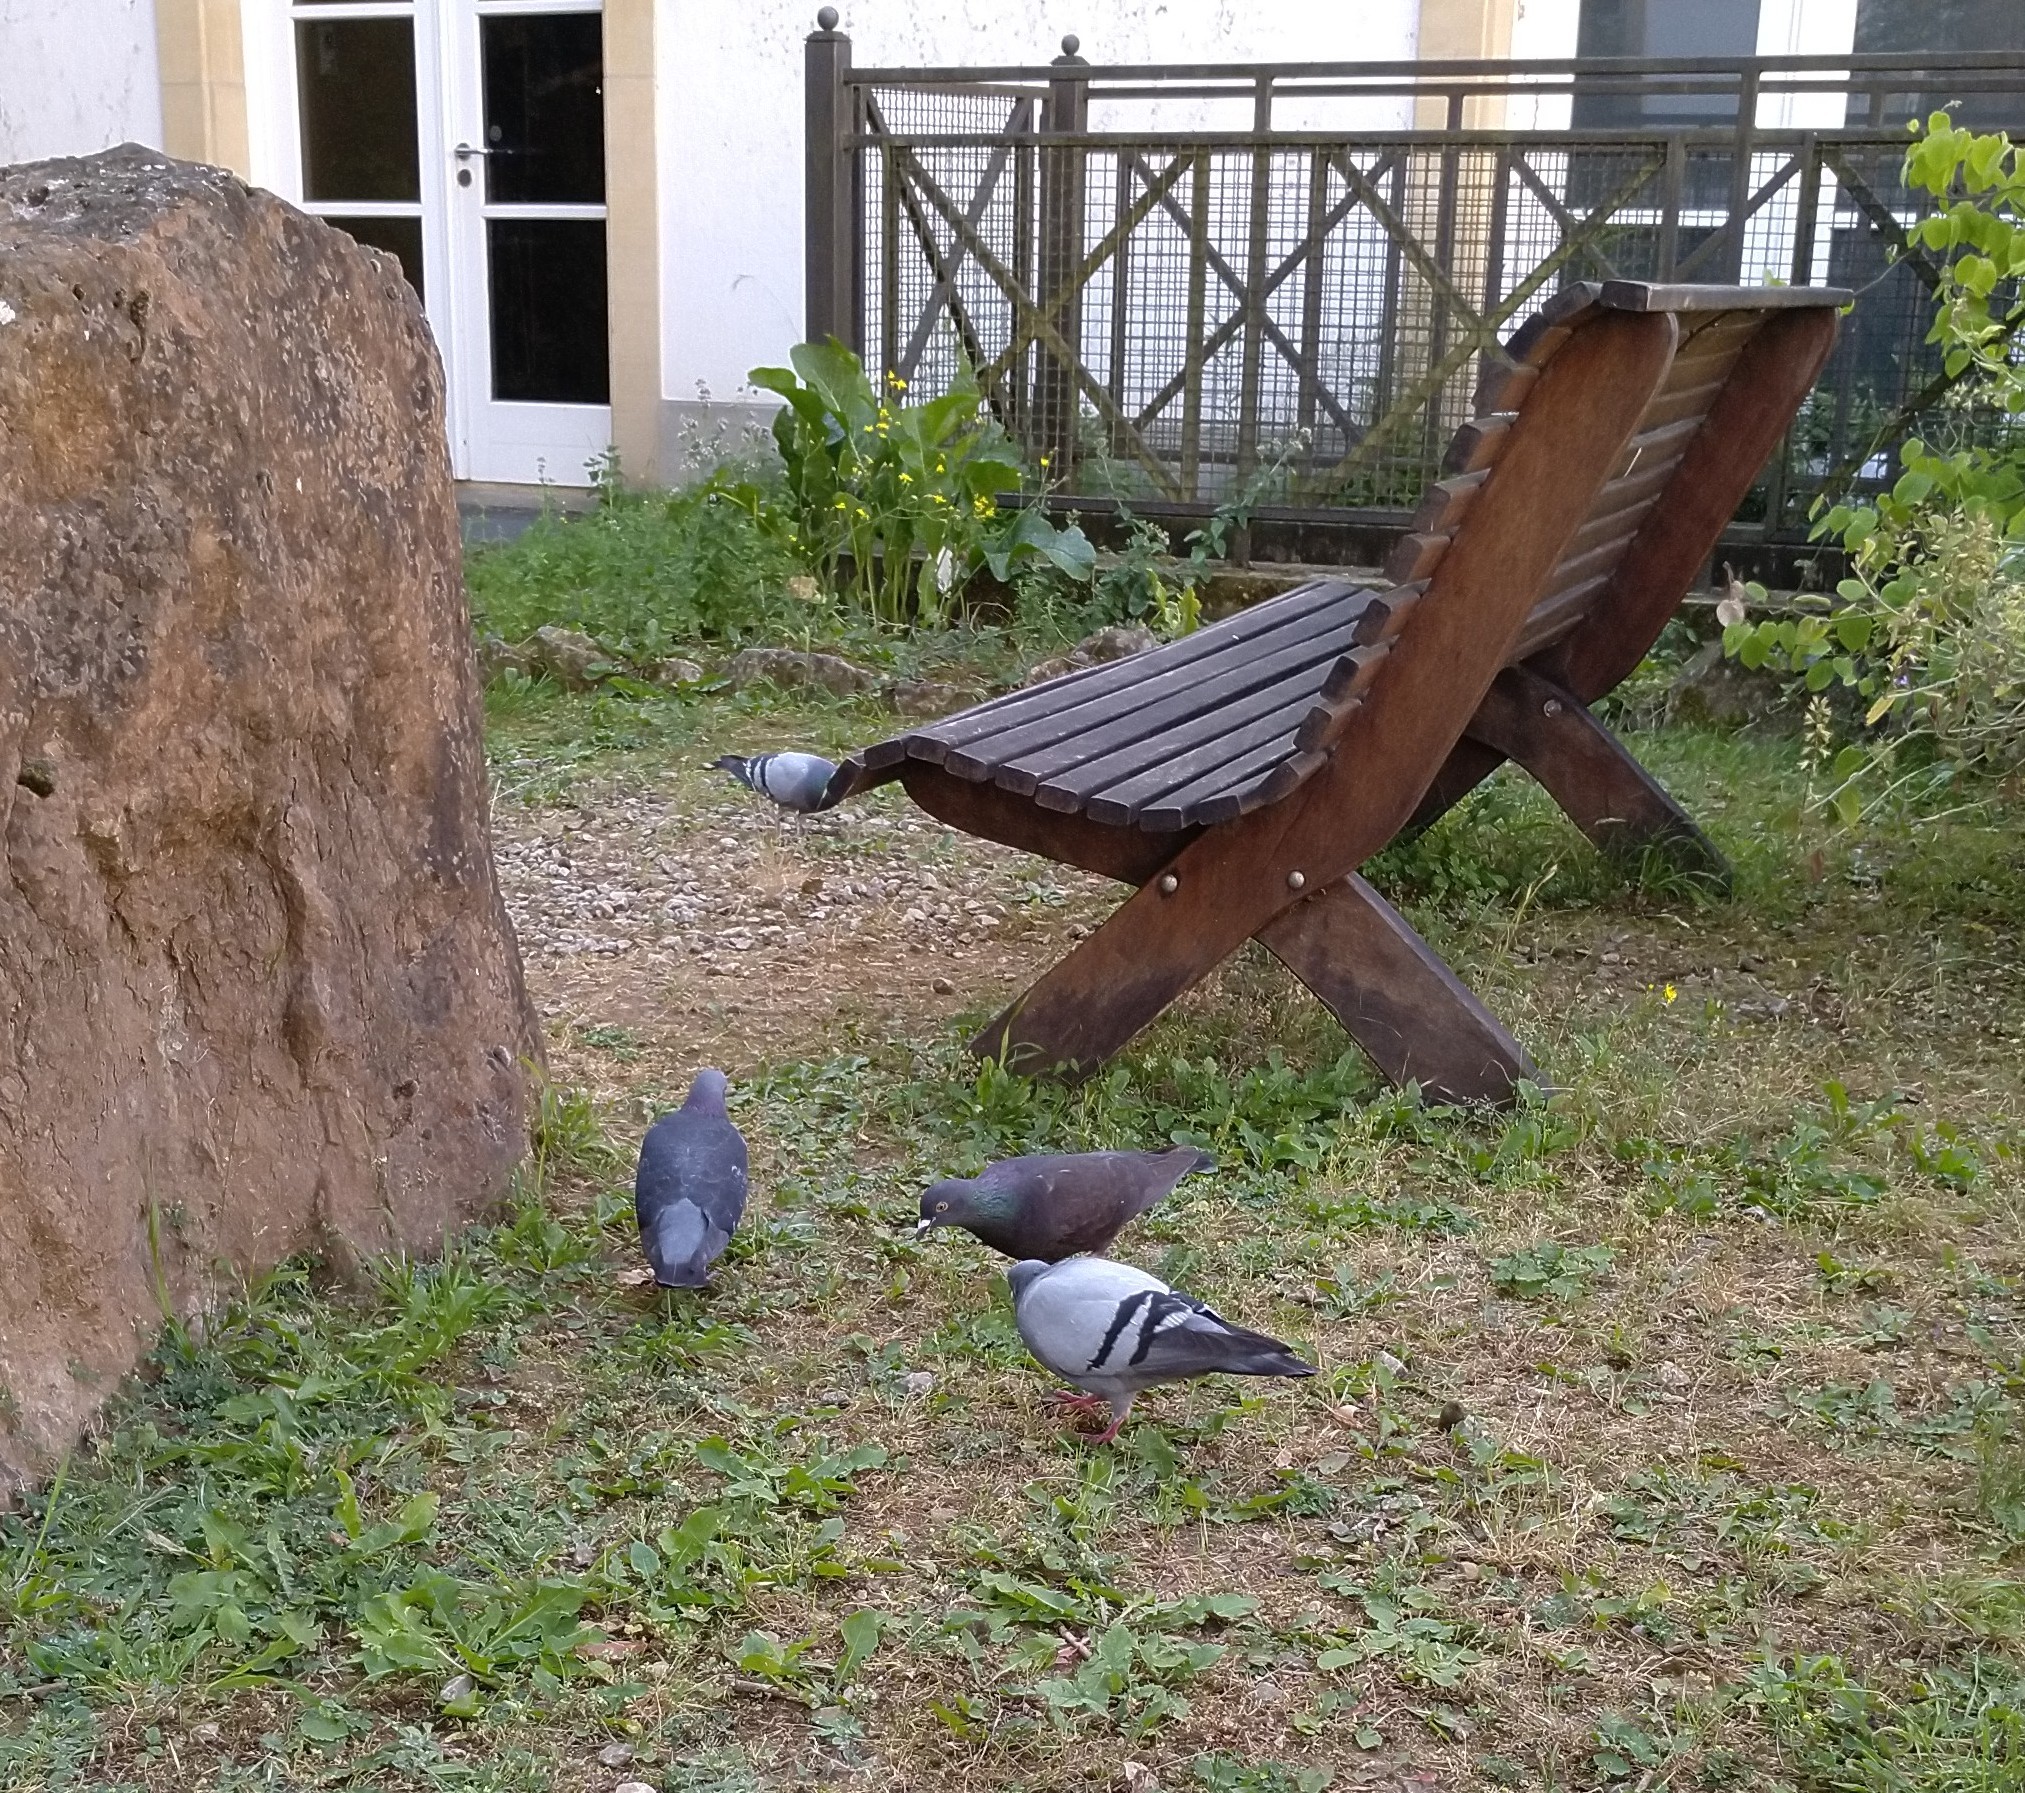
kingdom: Animalia
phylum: Chordata
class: Aves
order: Columbiformes
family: Columbidae
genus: Columba
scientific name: Columba livia
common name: Rock pigeon
